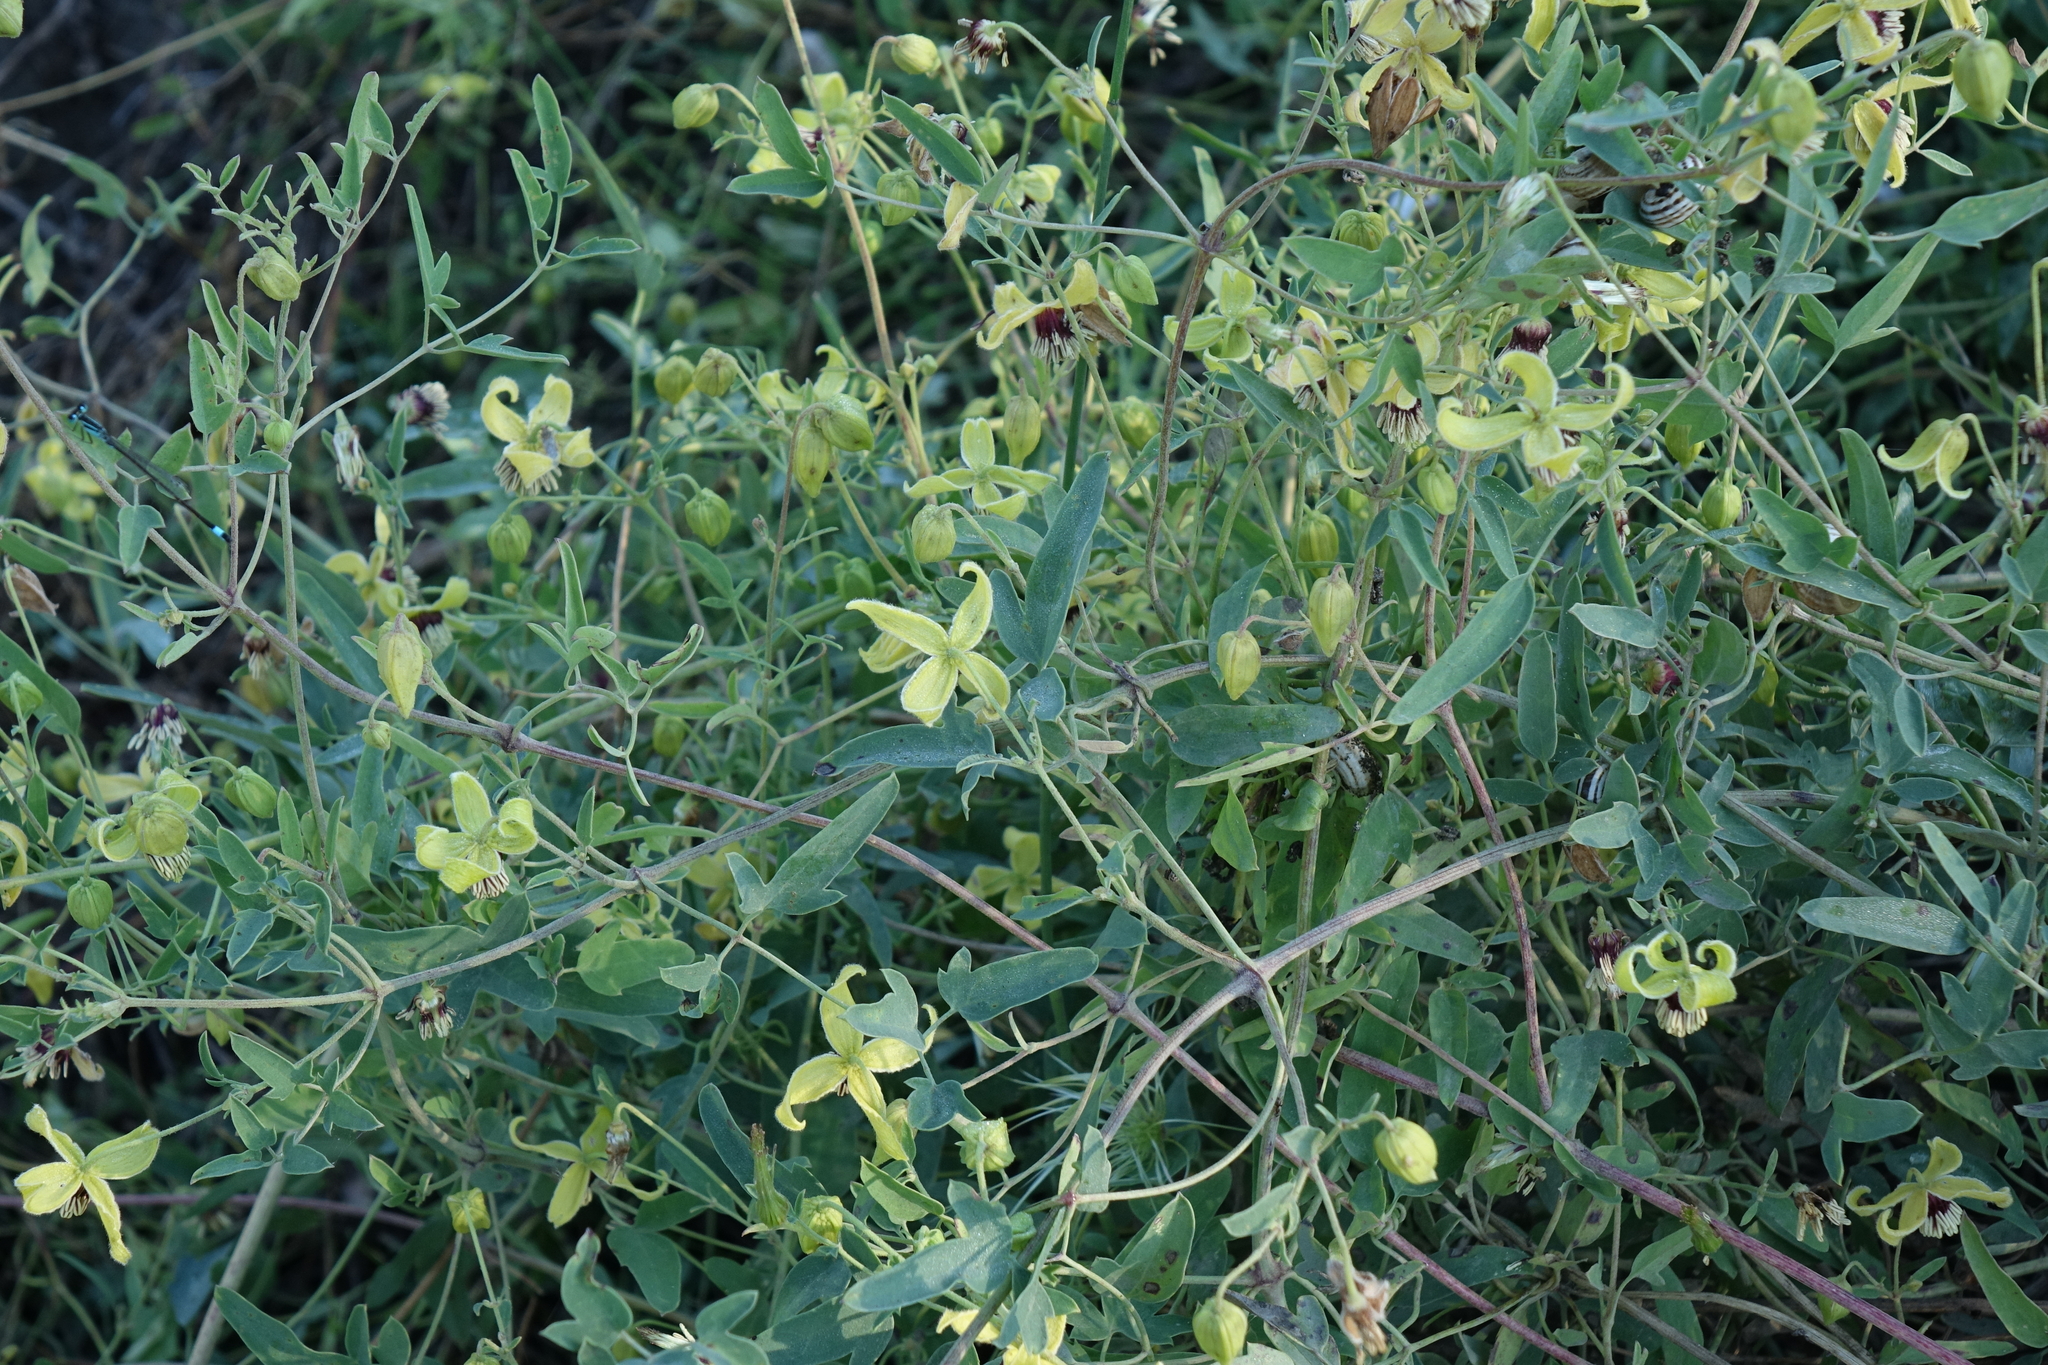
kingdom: Plantae
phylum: Tracheophyta
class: Magnoliopsida
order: Ranunculales
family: Ranunculaceae
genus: Clematis
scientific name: Clematis orientalis
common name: Oriental virgin's-bower
